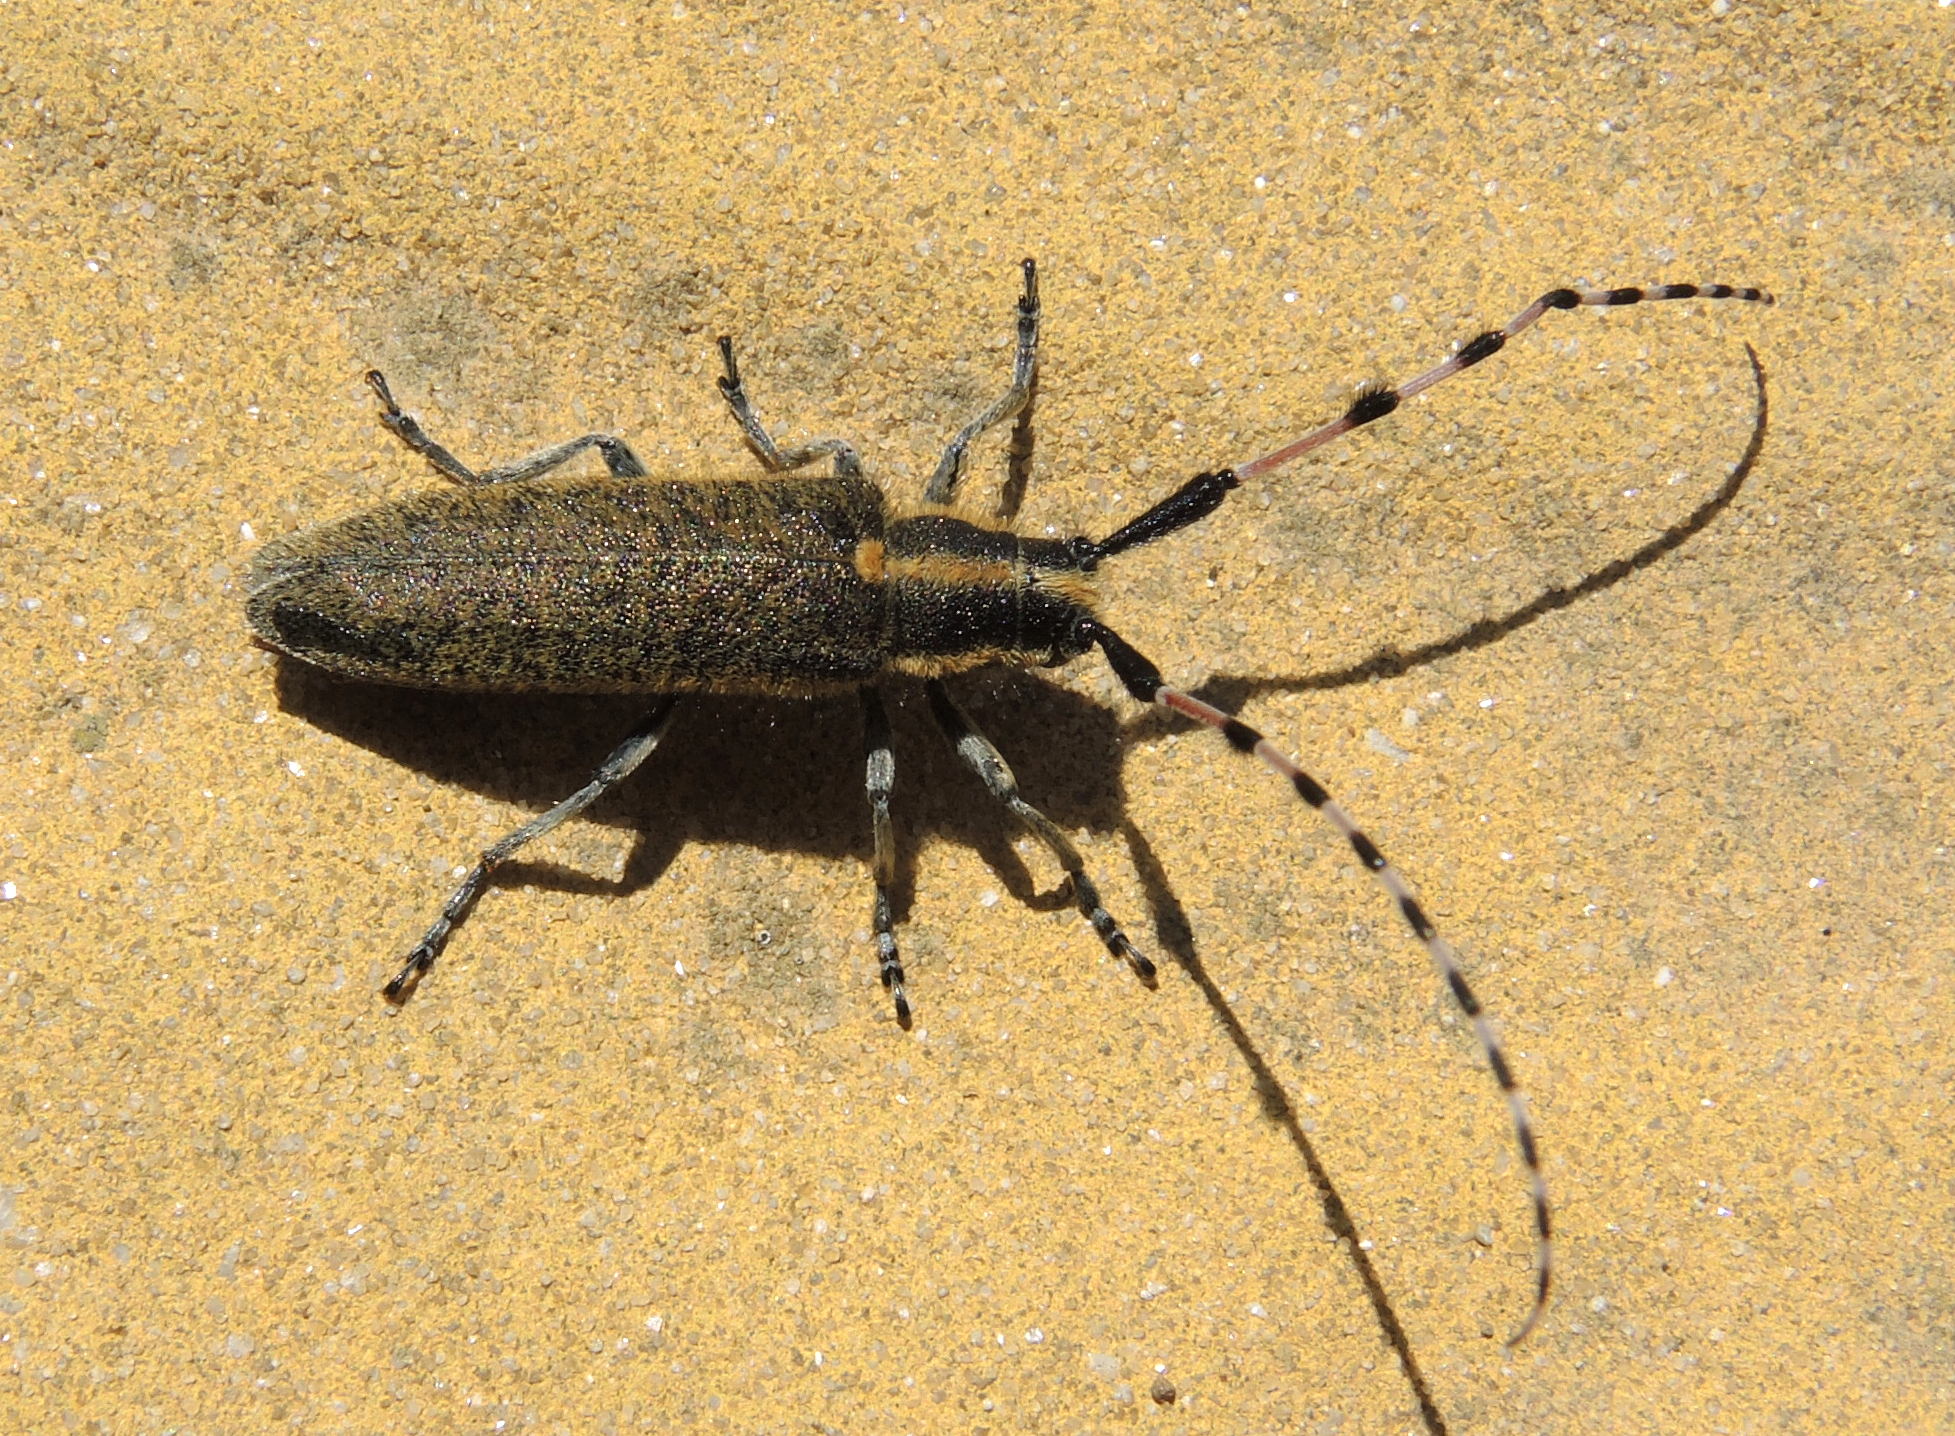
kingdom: Animalia
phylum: Arthropoda
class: Insecta
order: Coleoptera
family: Cerambycidae
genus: Agapanthia
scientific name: Agapanthia dahlii
